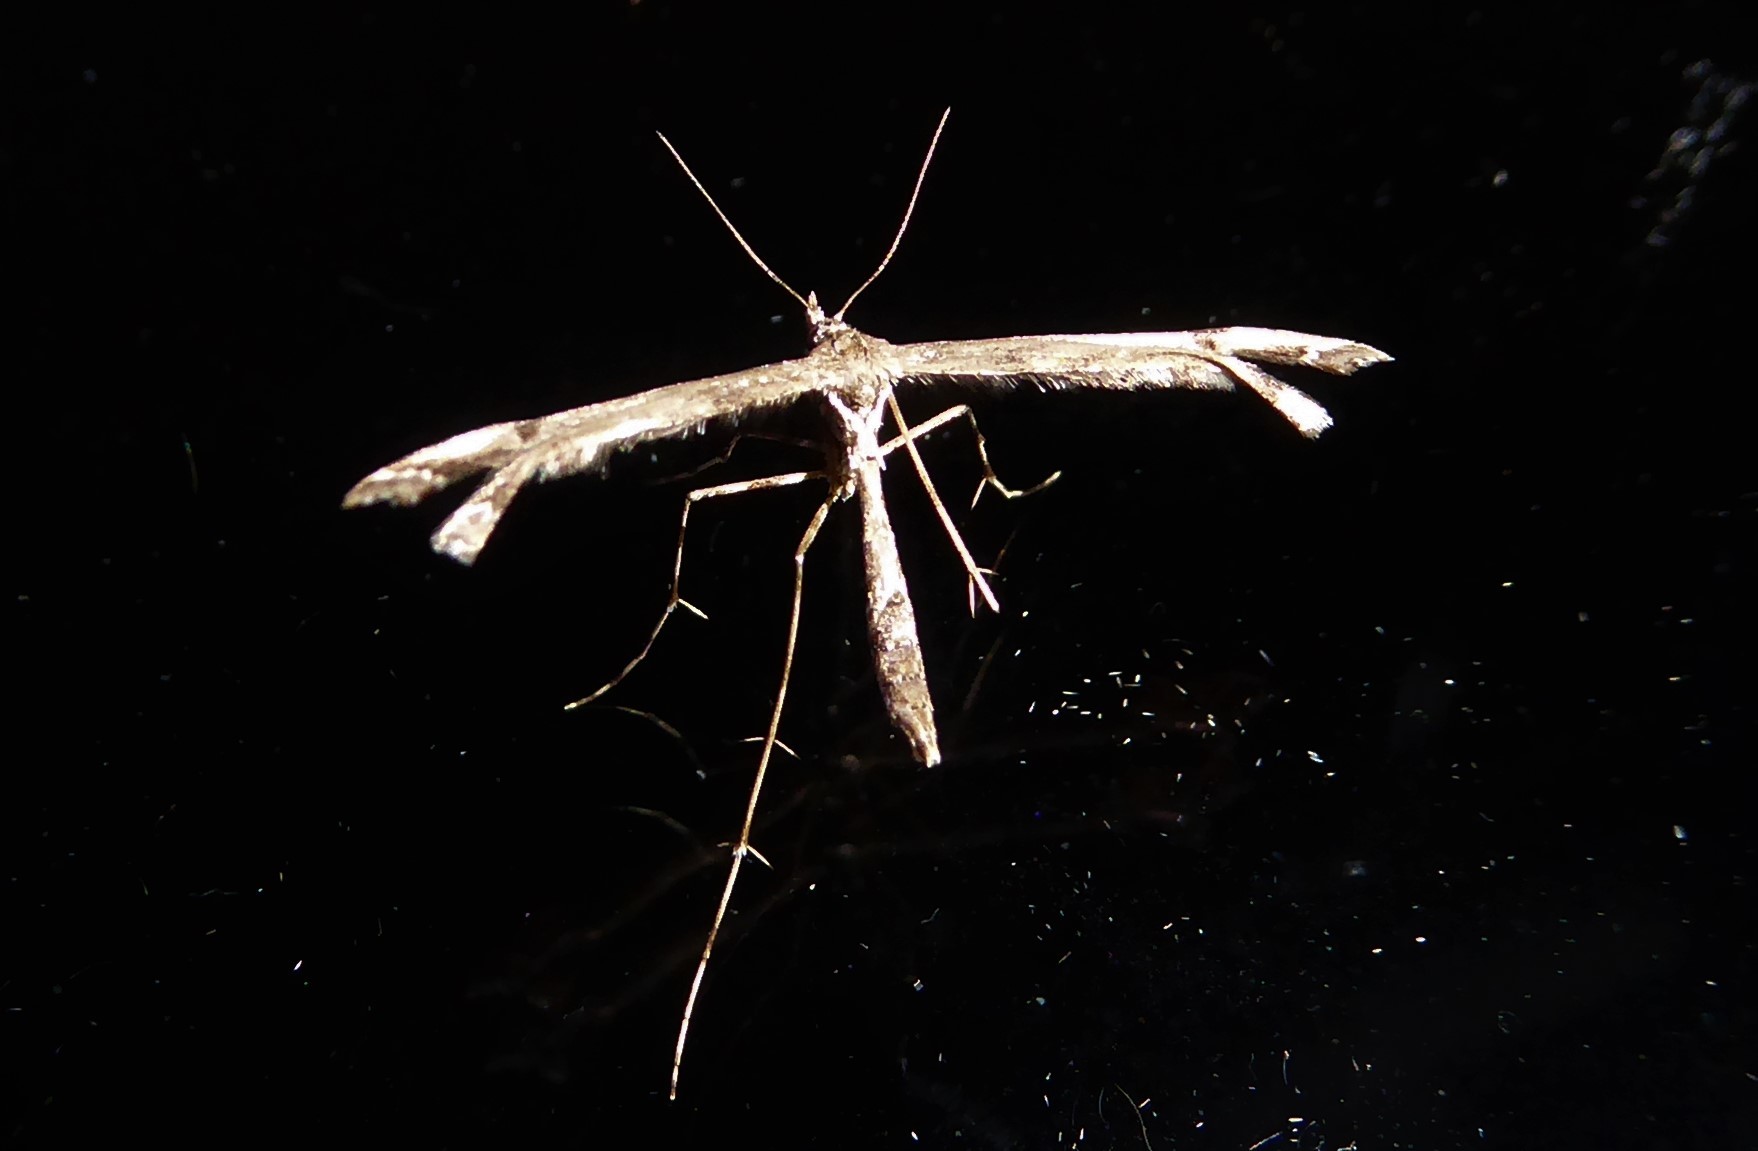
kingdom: Animalia
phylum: Arthropoda
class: Insecta
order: Lepidoptera
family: Pterophoridae
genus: Amblyptilia
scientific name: Amblyptilia repletalis
